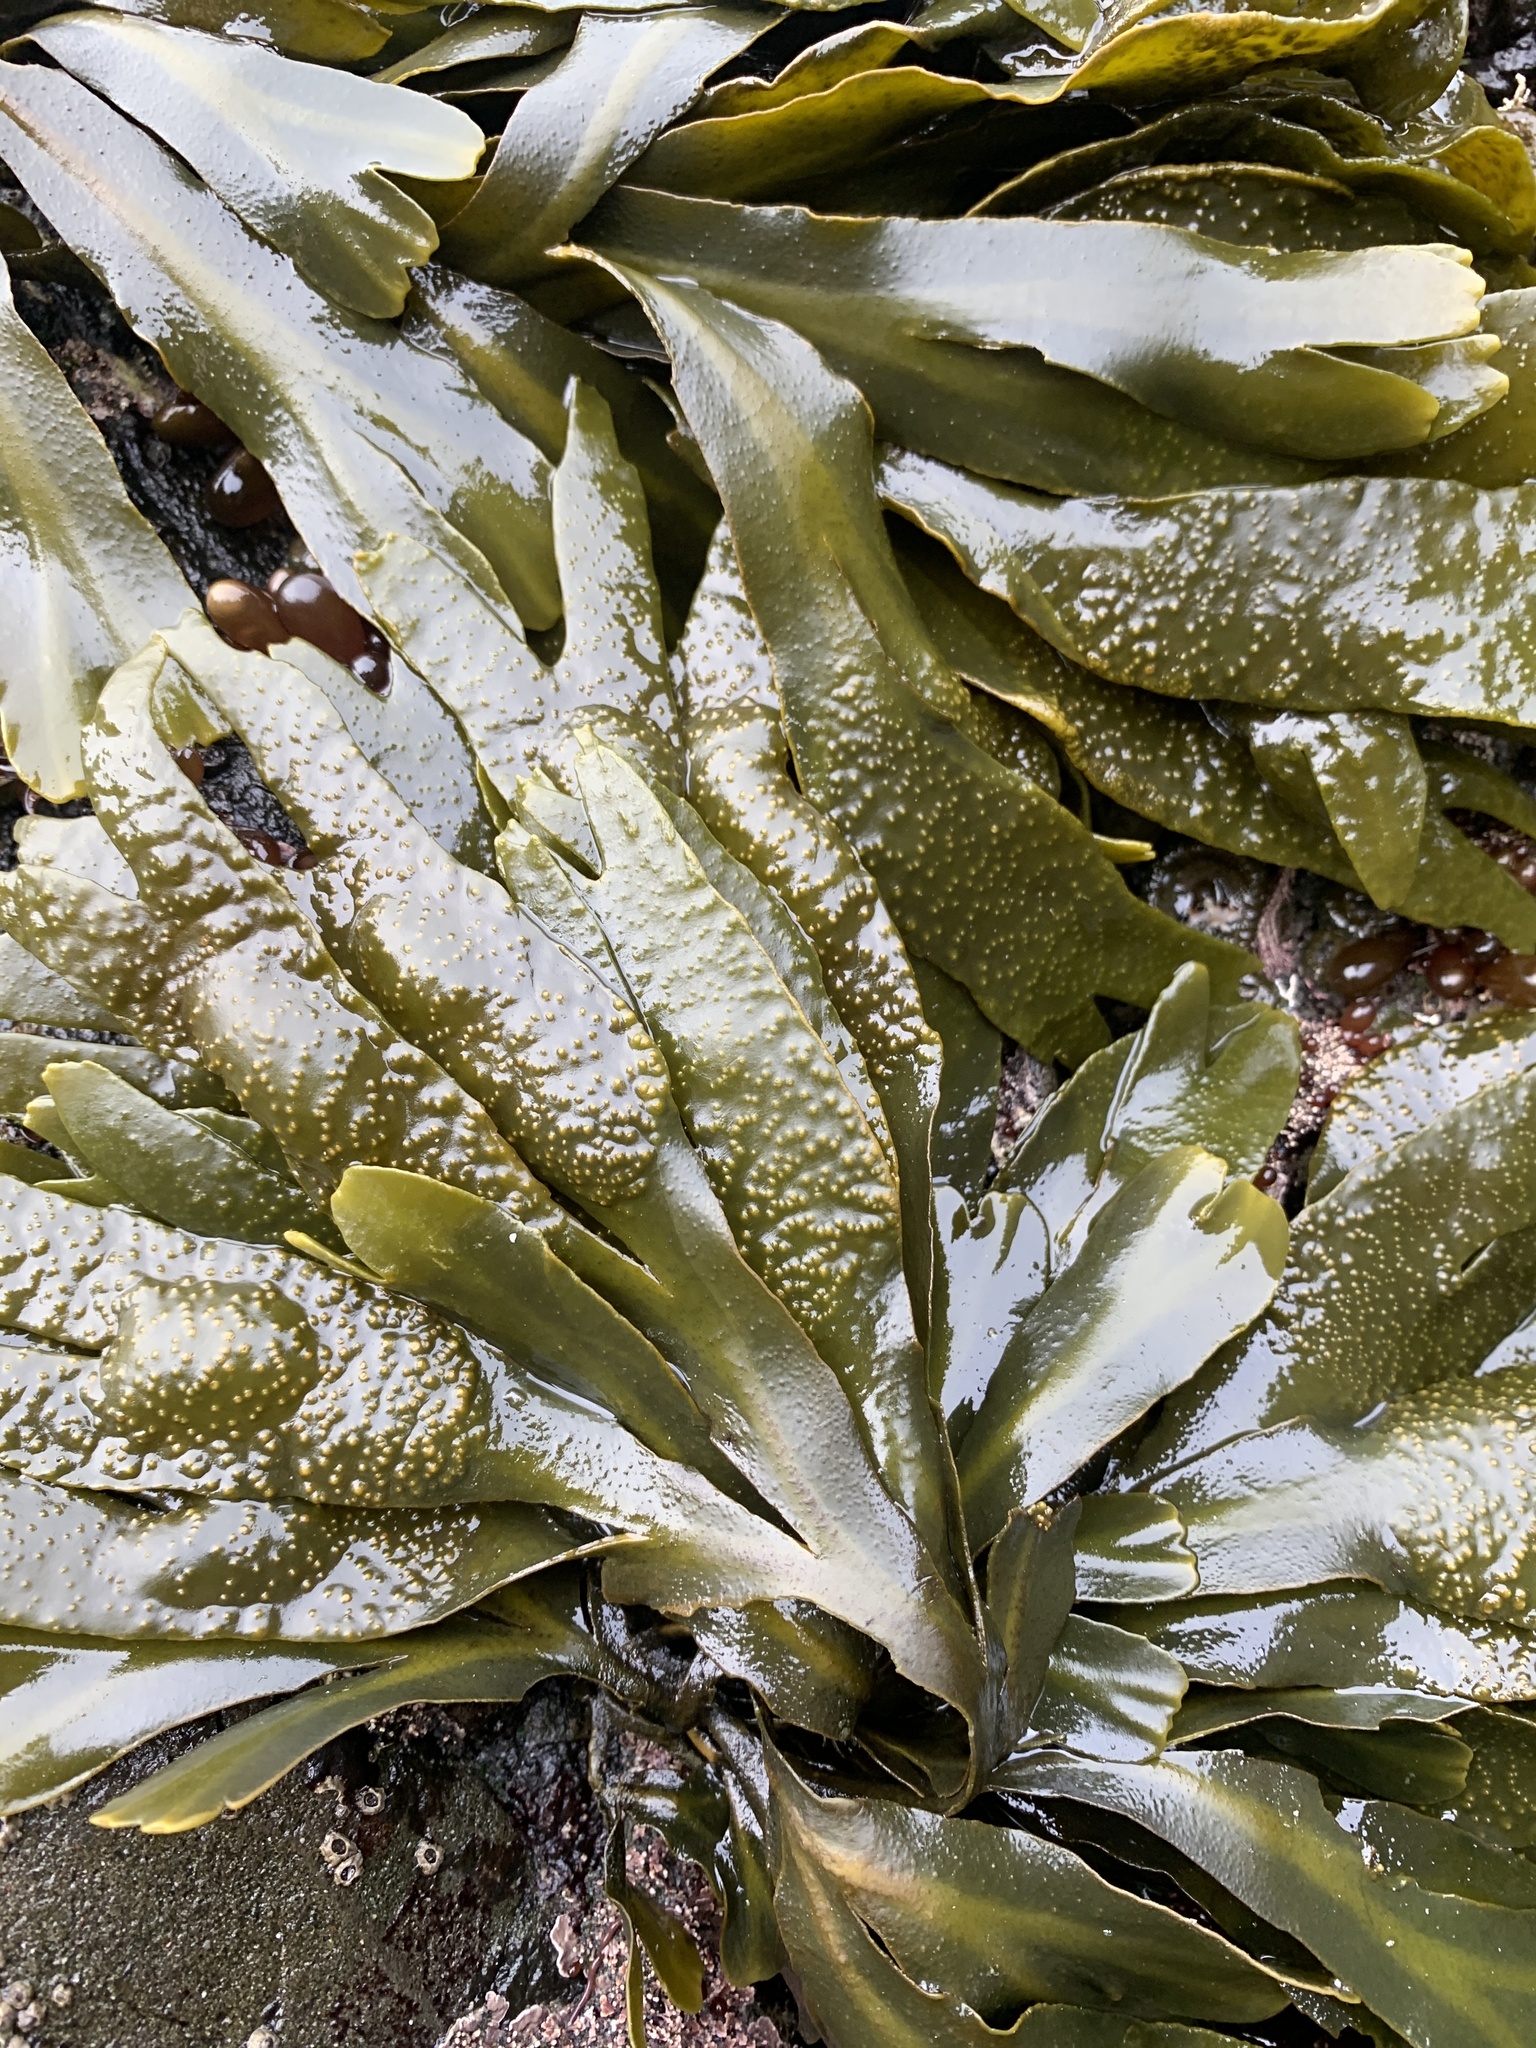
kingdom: Chromista
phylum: Ochrophyta
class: Phaeophyceae
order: Fucales
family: Fucaceae
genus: Fucus
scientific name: Fucus distichus
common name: Rockweed
